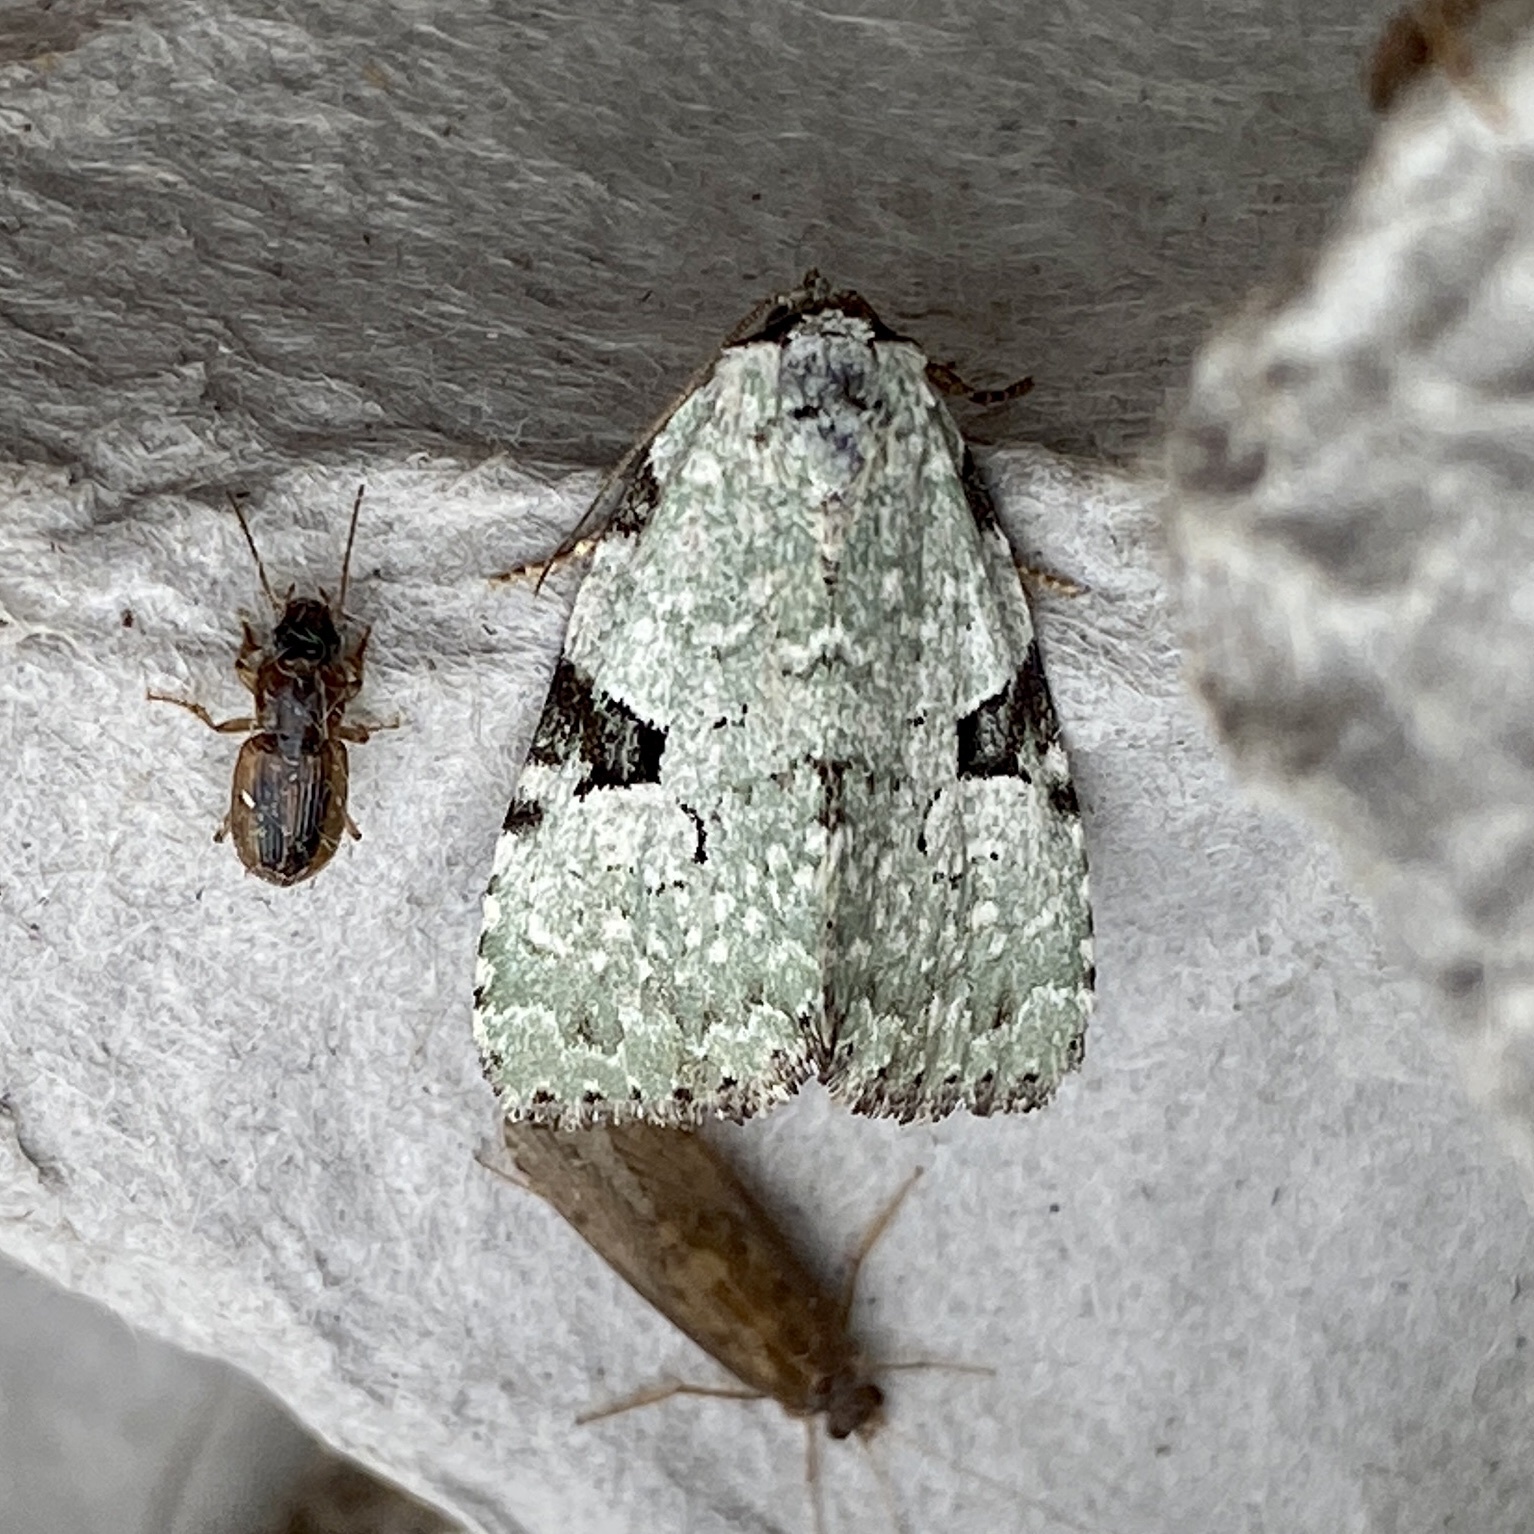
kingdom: Animalia
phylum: Arthropoda
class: Insecta
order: Lepidoptera
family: Noctuidae
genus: Leuconycta
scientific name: Leuconycta diphteroides
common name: Green leuconycta moth
